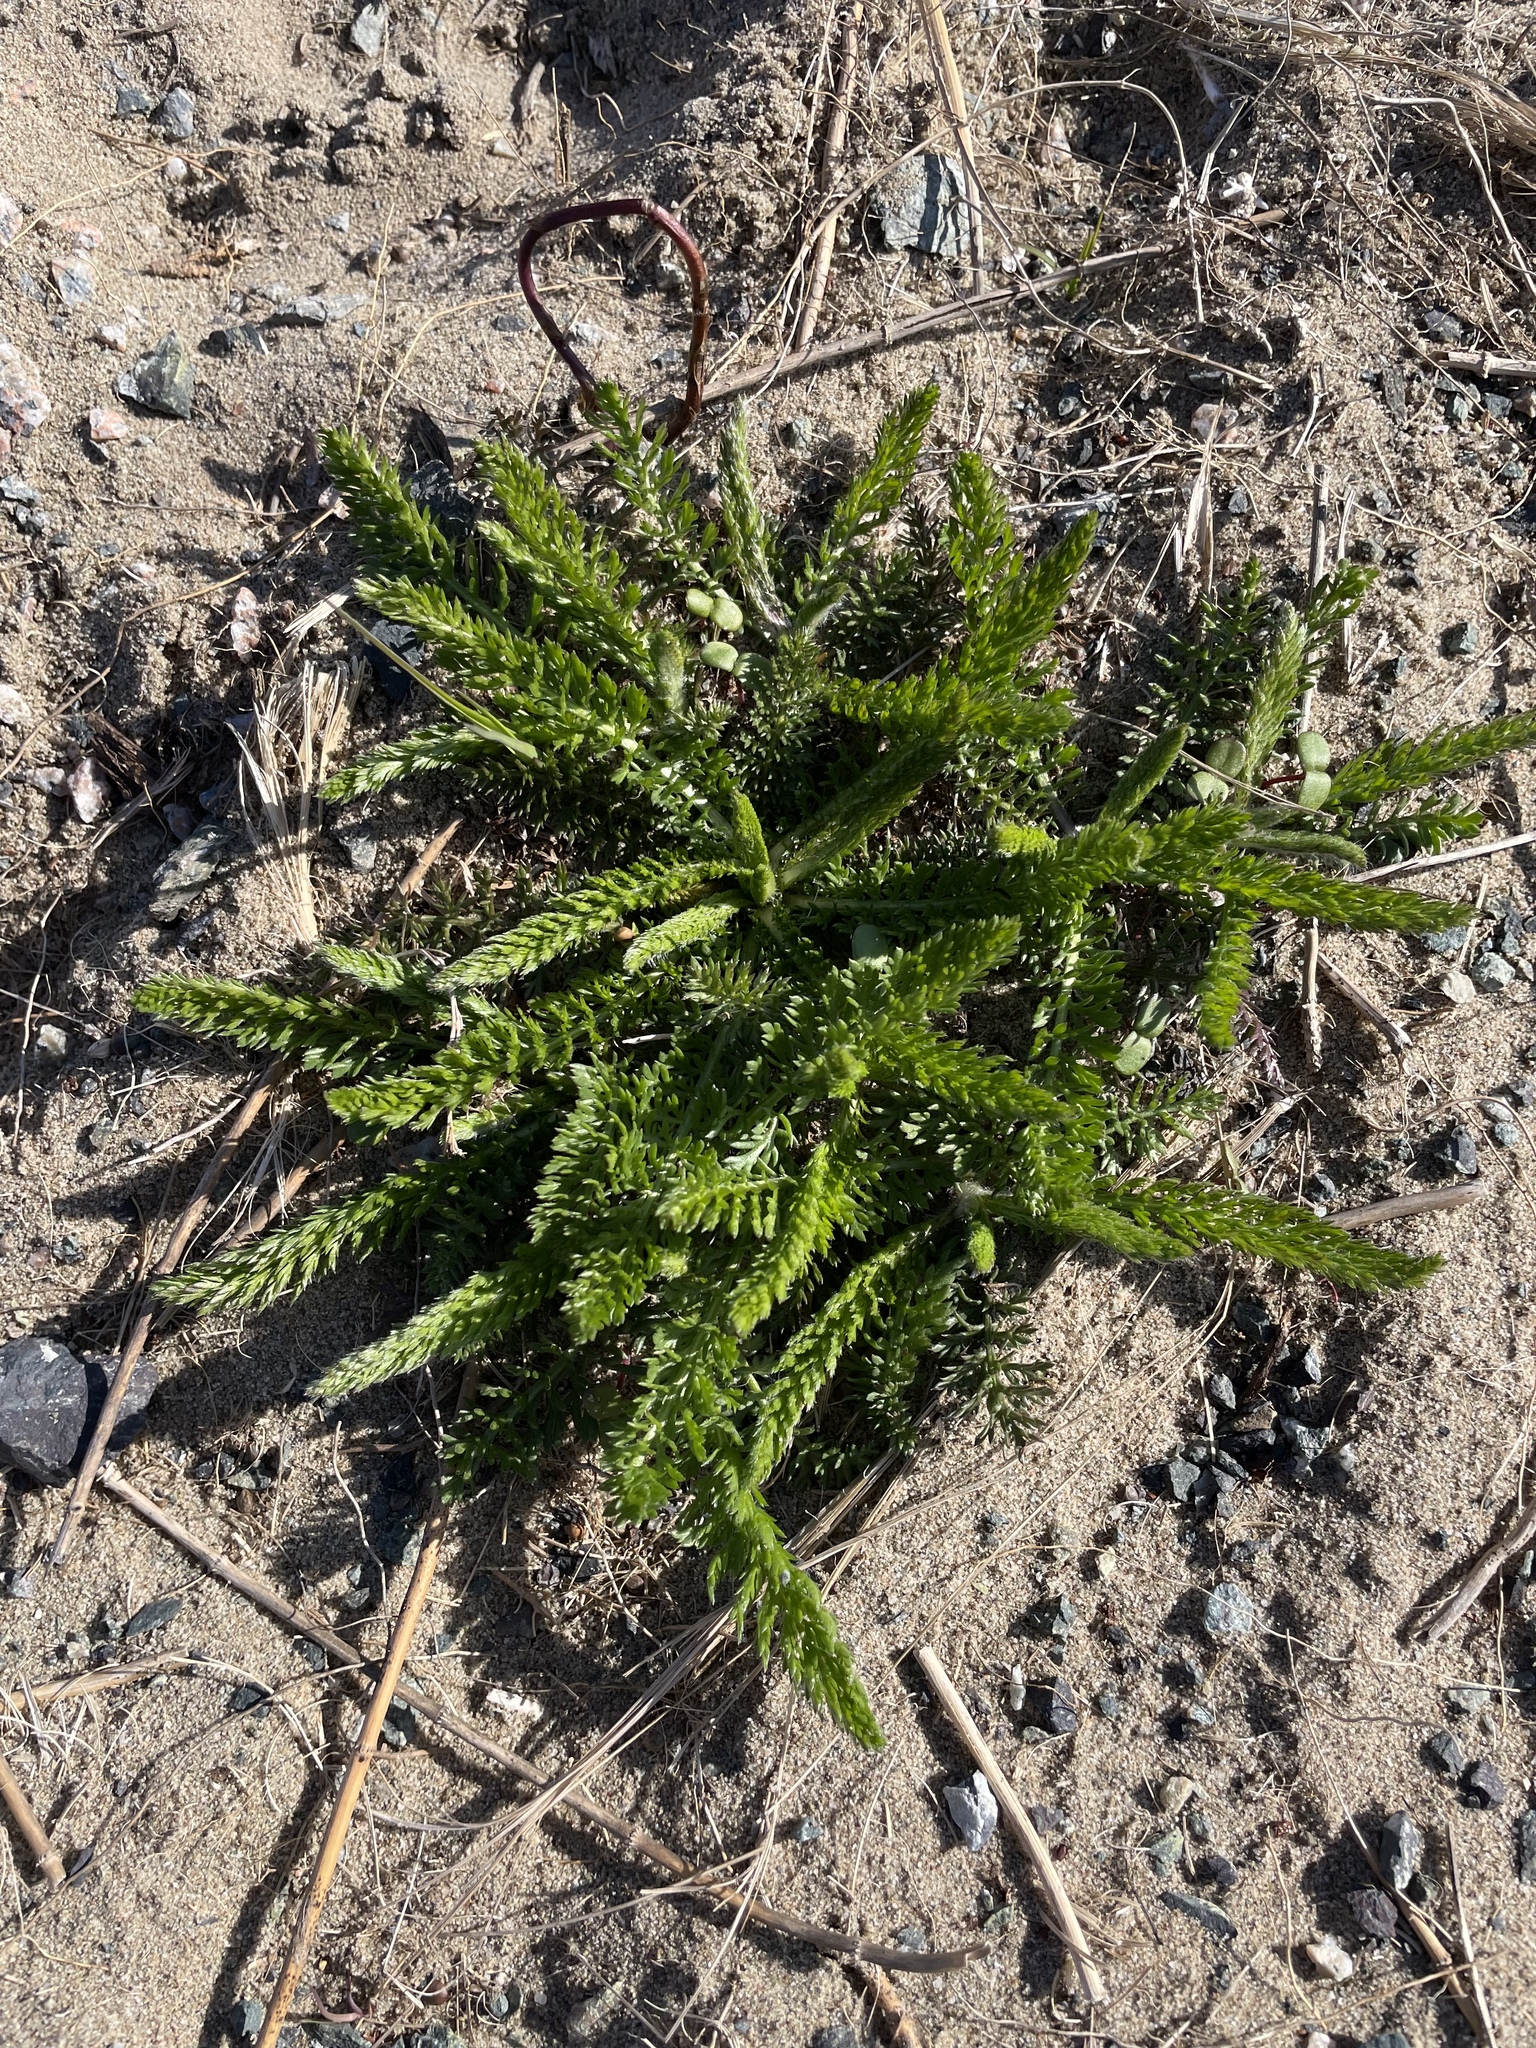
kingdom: Plantae
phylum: Tracheophyta
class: Magnoliopsida
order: Asterales
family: Asteraceae
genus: Achillea
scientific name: Achillea millefolium
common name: Yarrow
